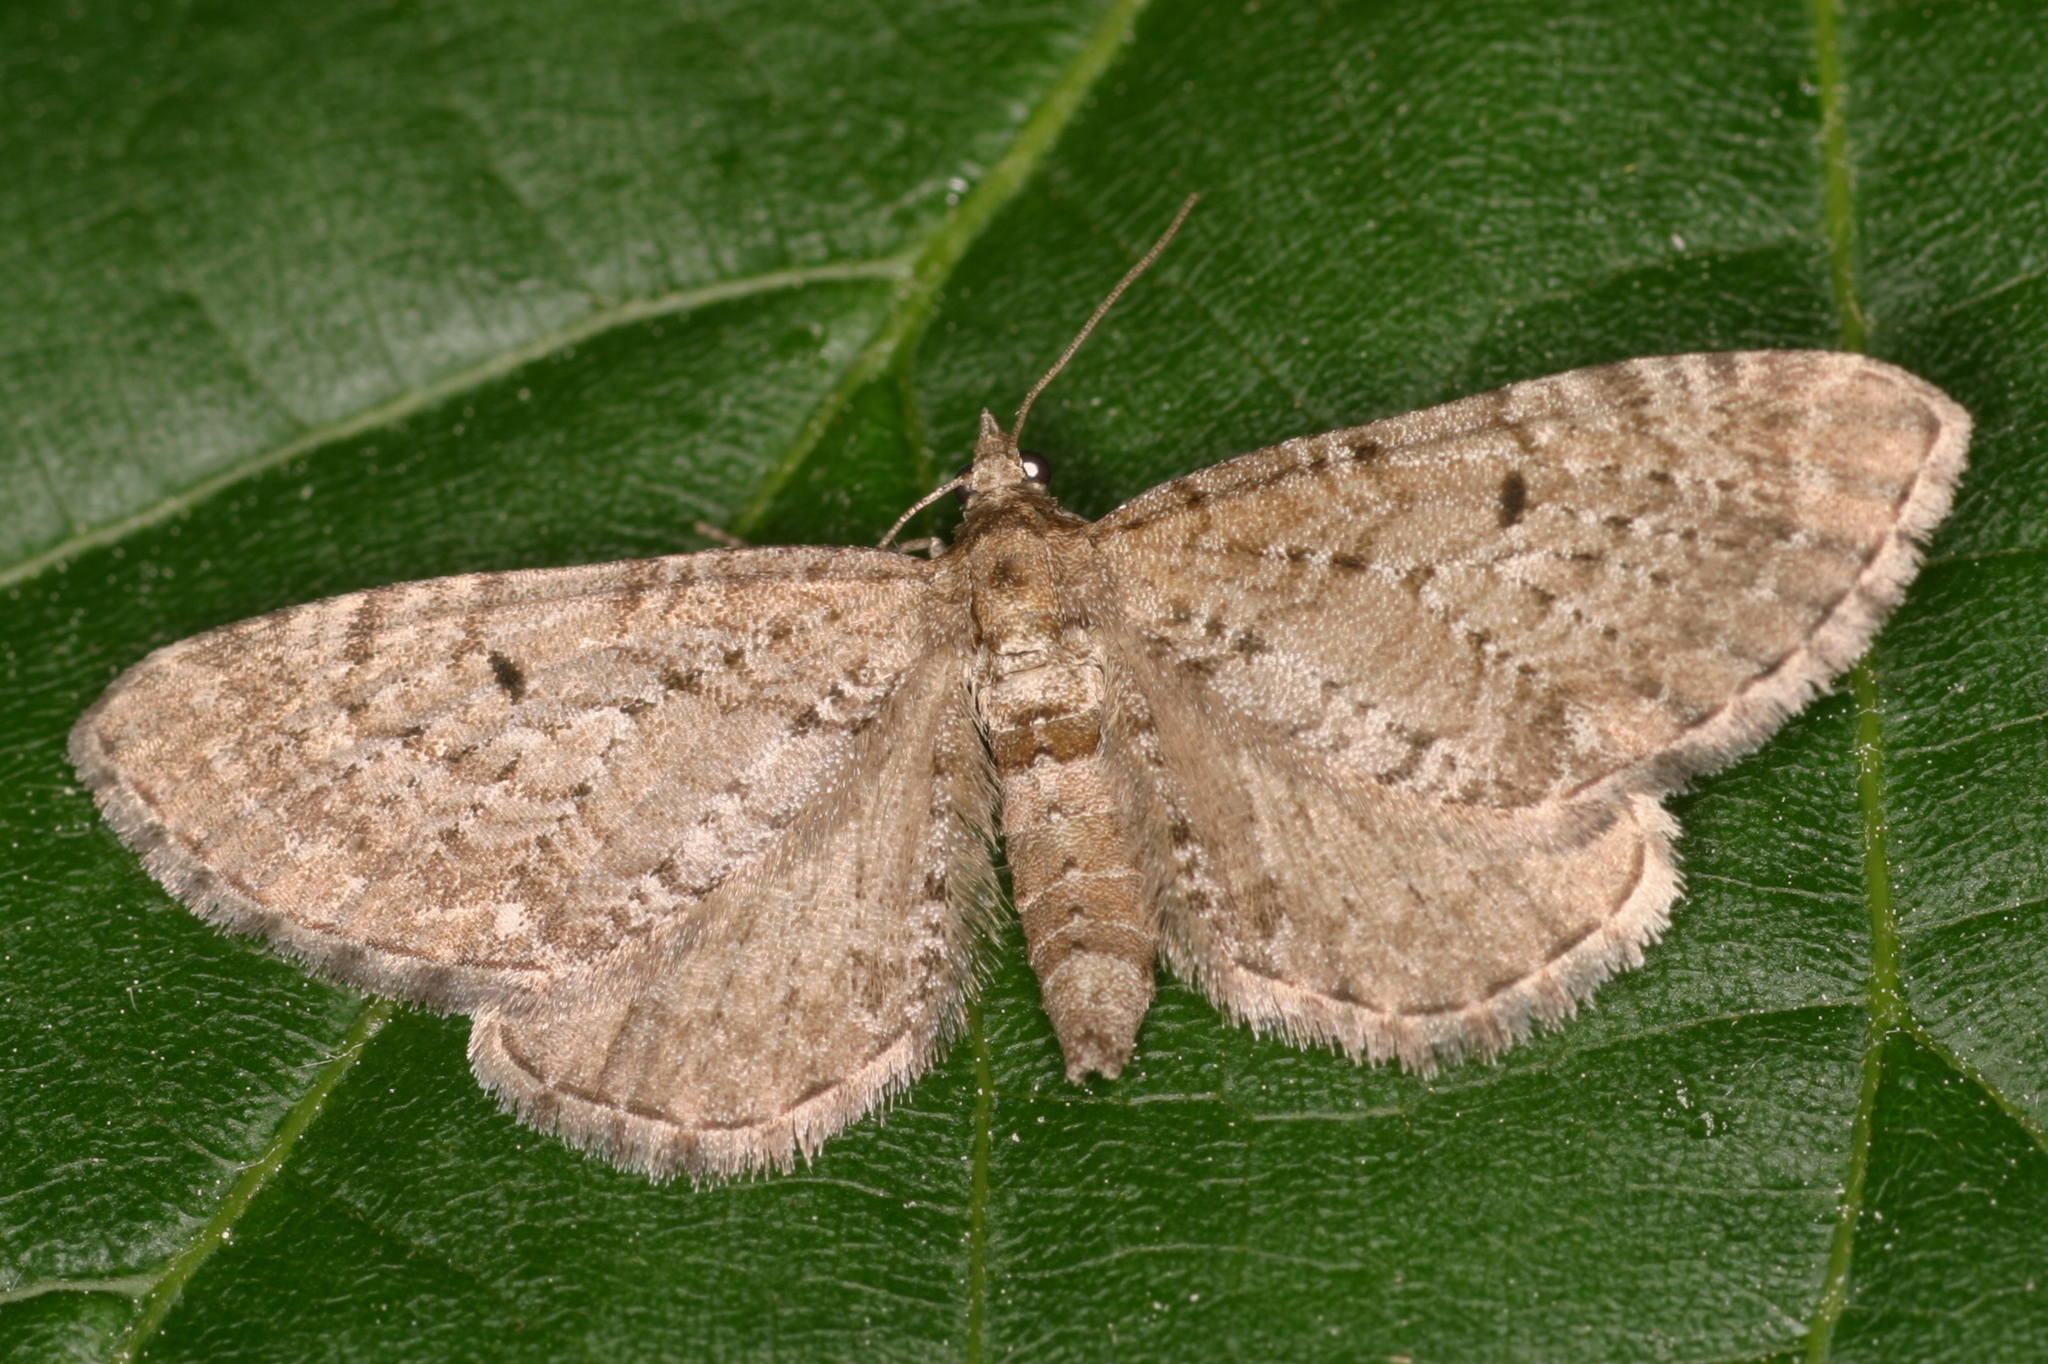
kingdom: Animalia
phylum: Arthropoda
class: Insecta
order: Lepidoptera
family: Geometridae
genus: Eupithecia
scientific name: Eupithecia intricata
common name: Freyers pug
